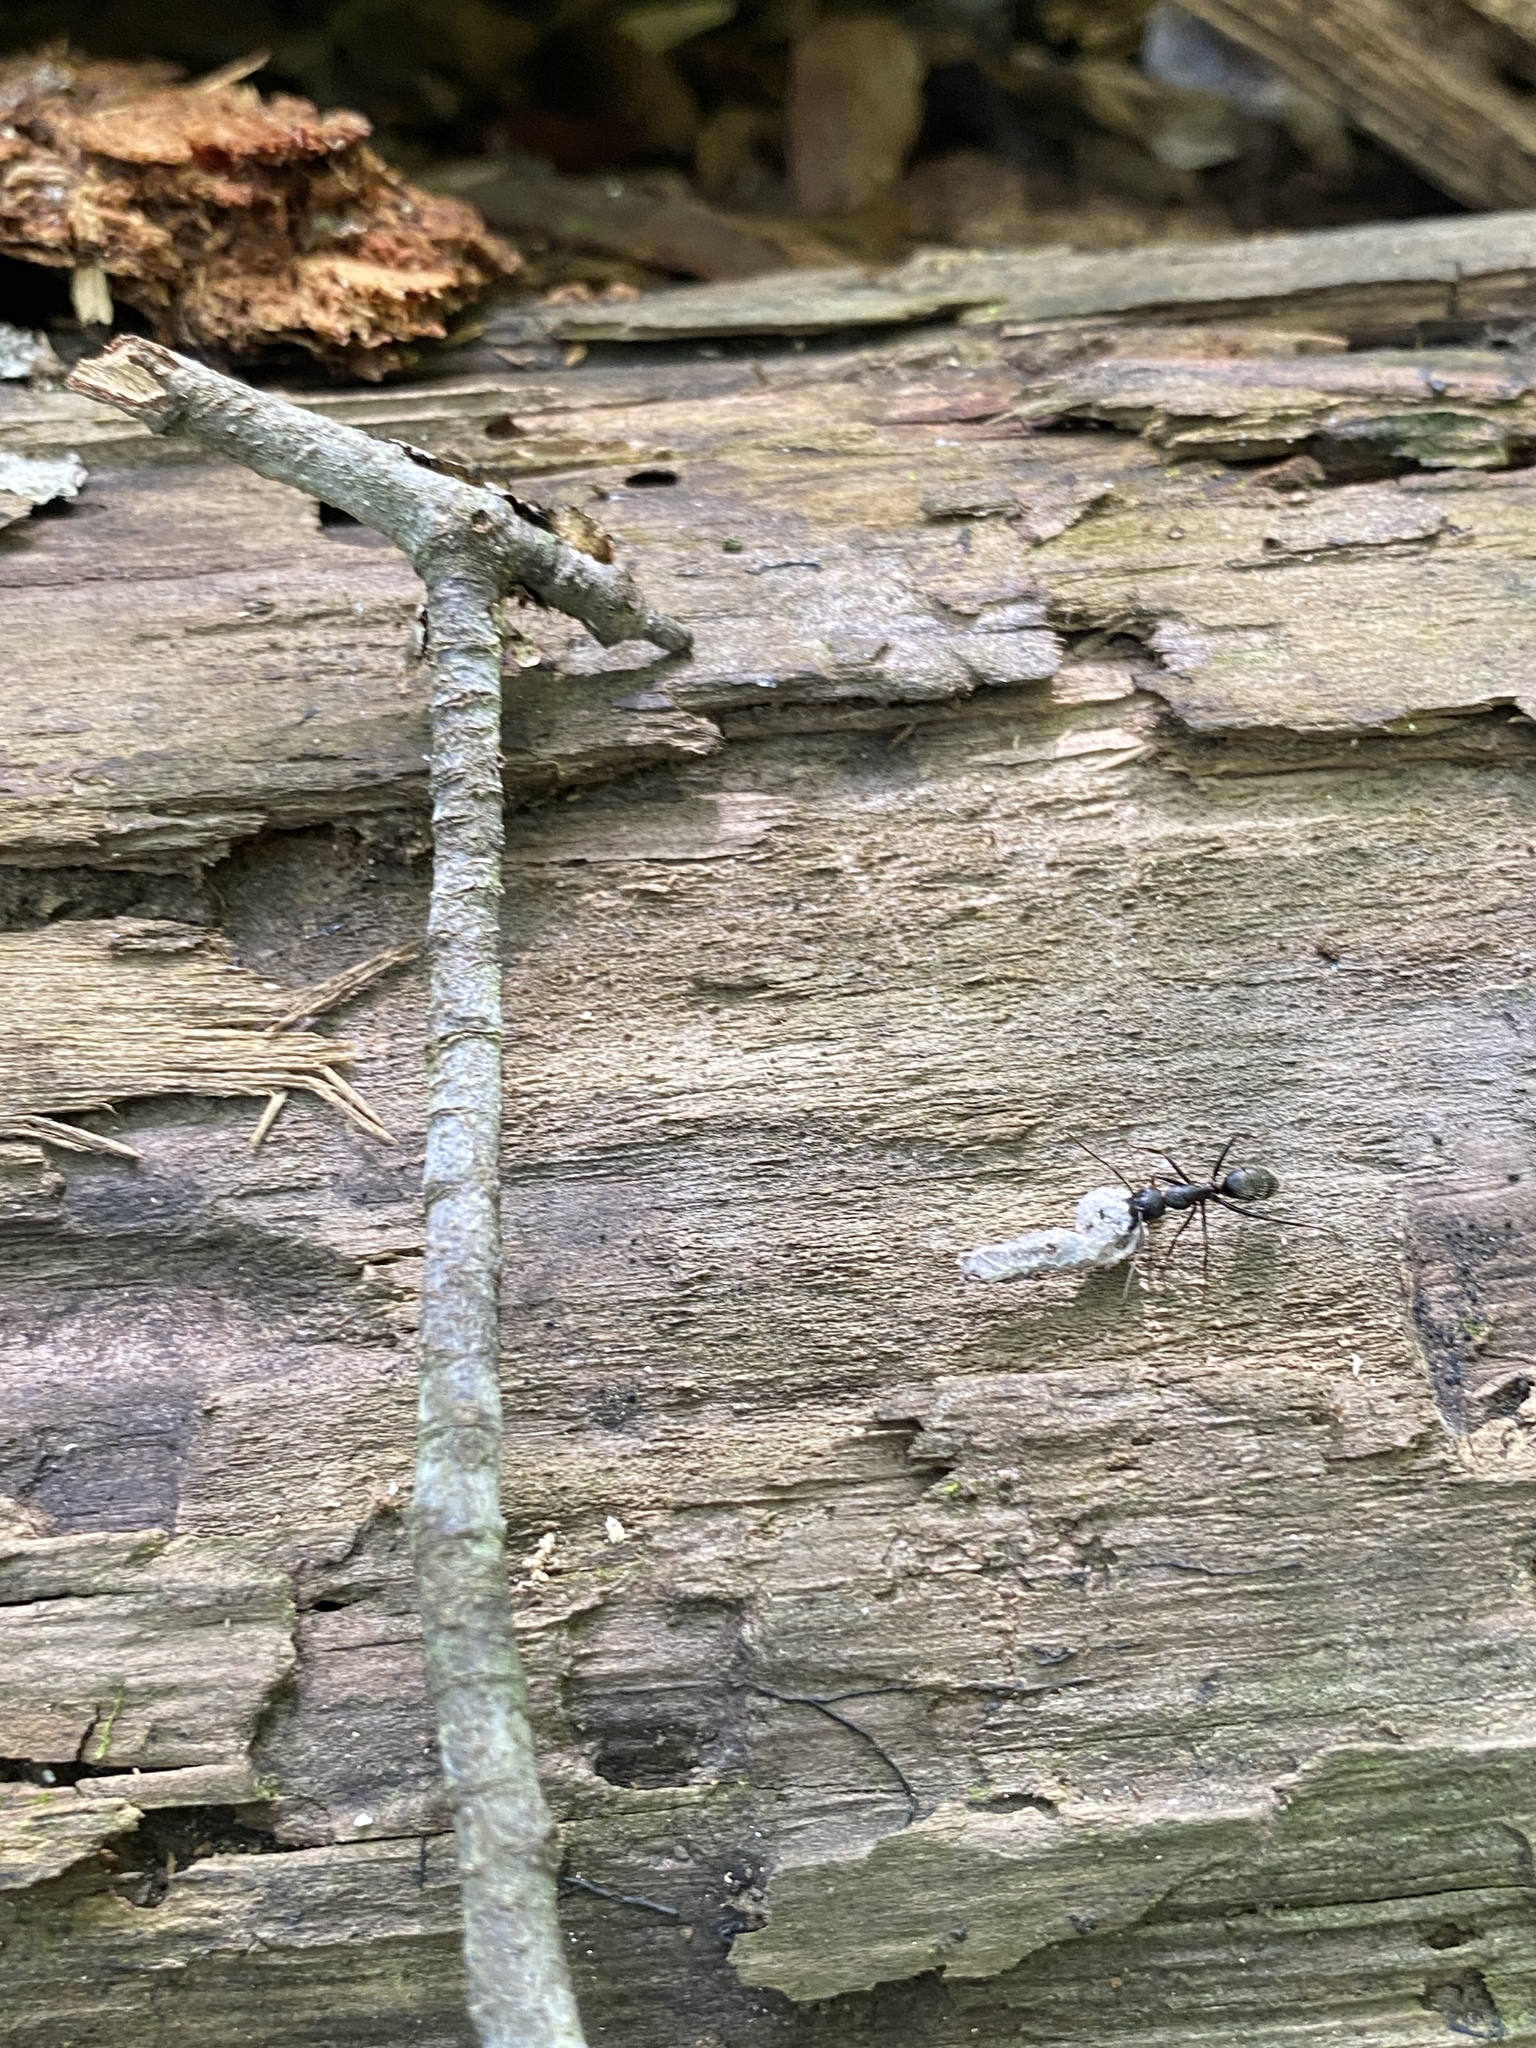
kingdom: Animalia
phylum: Arthropoda
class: Insecta
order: Hymenoptera
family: Formicidae
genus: Camponotus
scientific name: Camponotus pennsylvanicus
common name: Black carpenter ant
